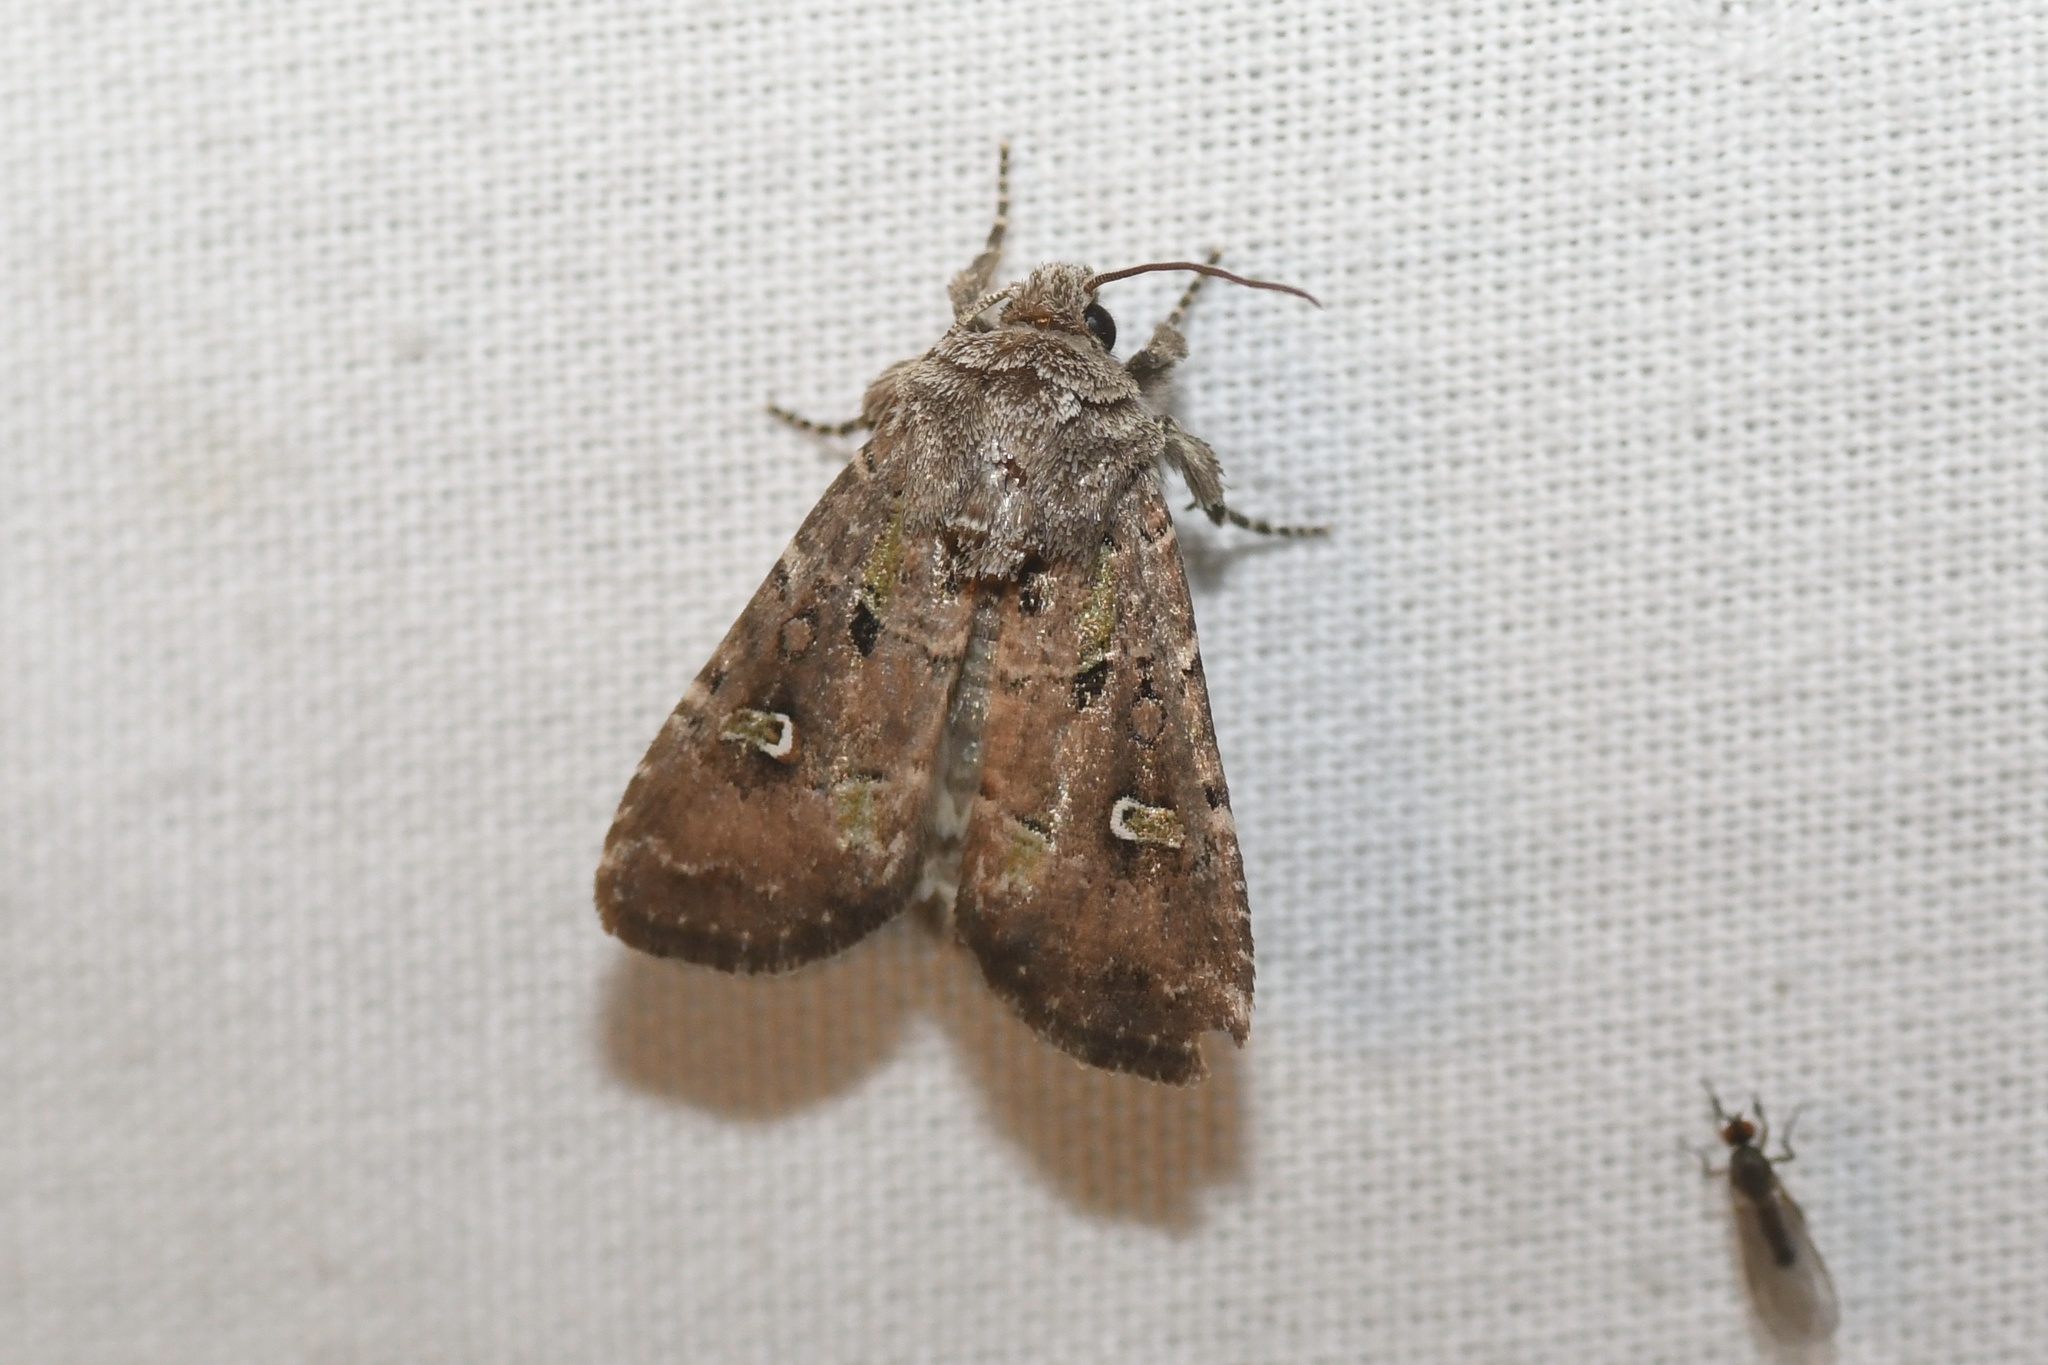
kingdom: Animalia
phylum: Arthropoda
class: Insecta
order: Lepidoptera
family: Noctuidae
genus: Lacinipolia
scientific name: Lacinipolia renigera
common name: Kidney-spotted minor
